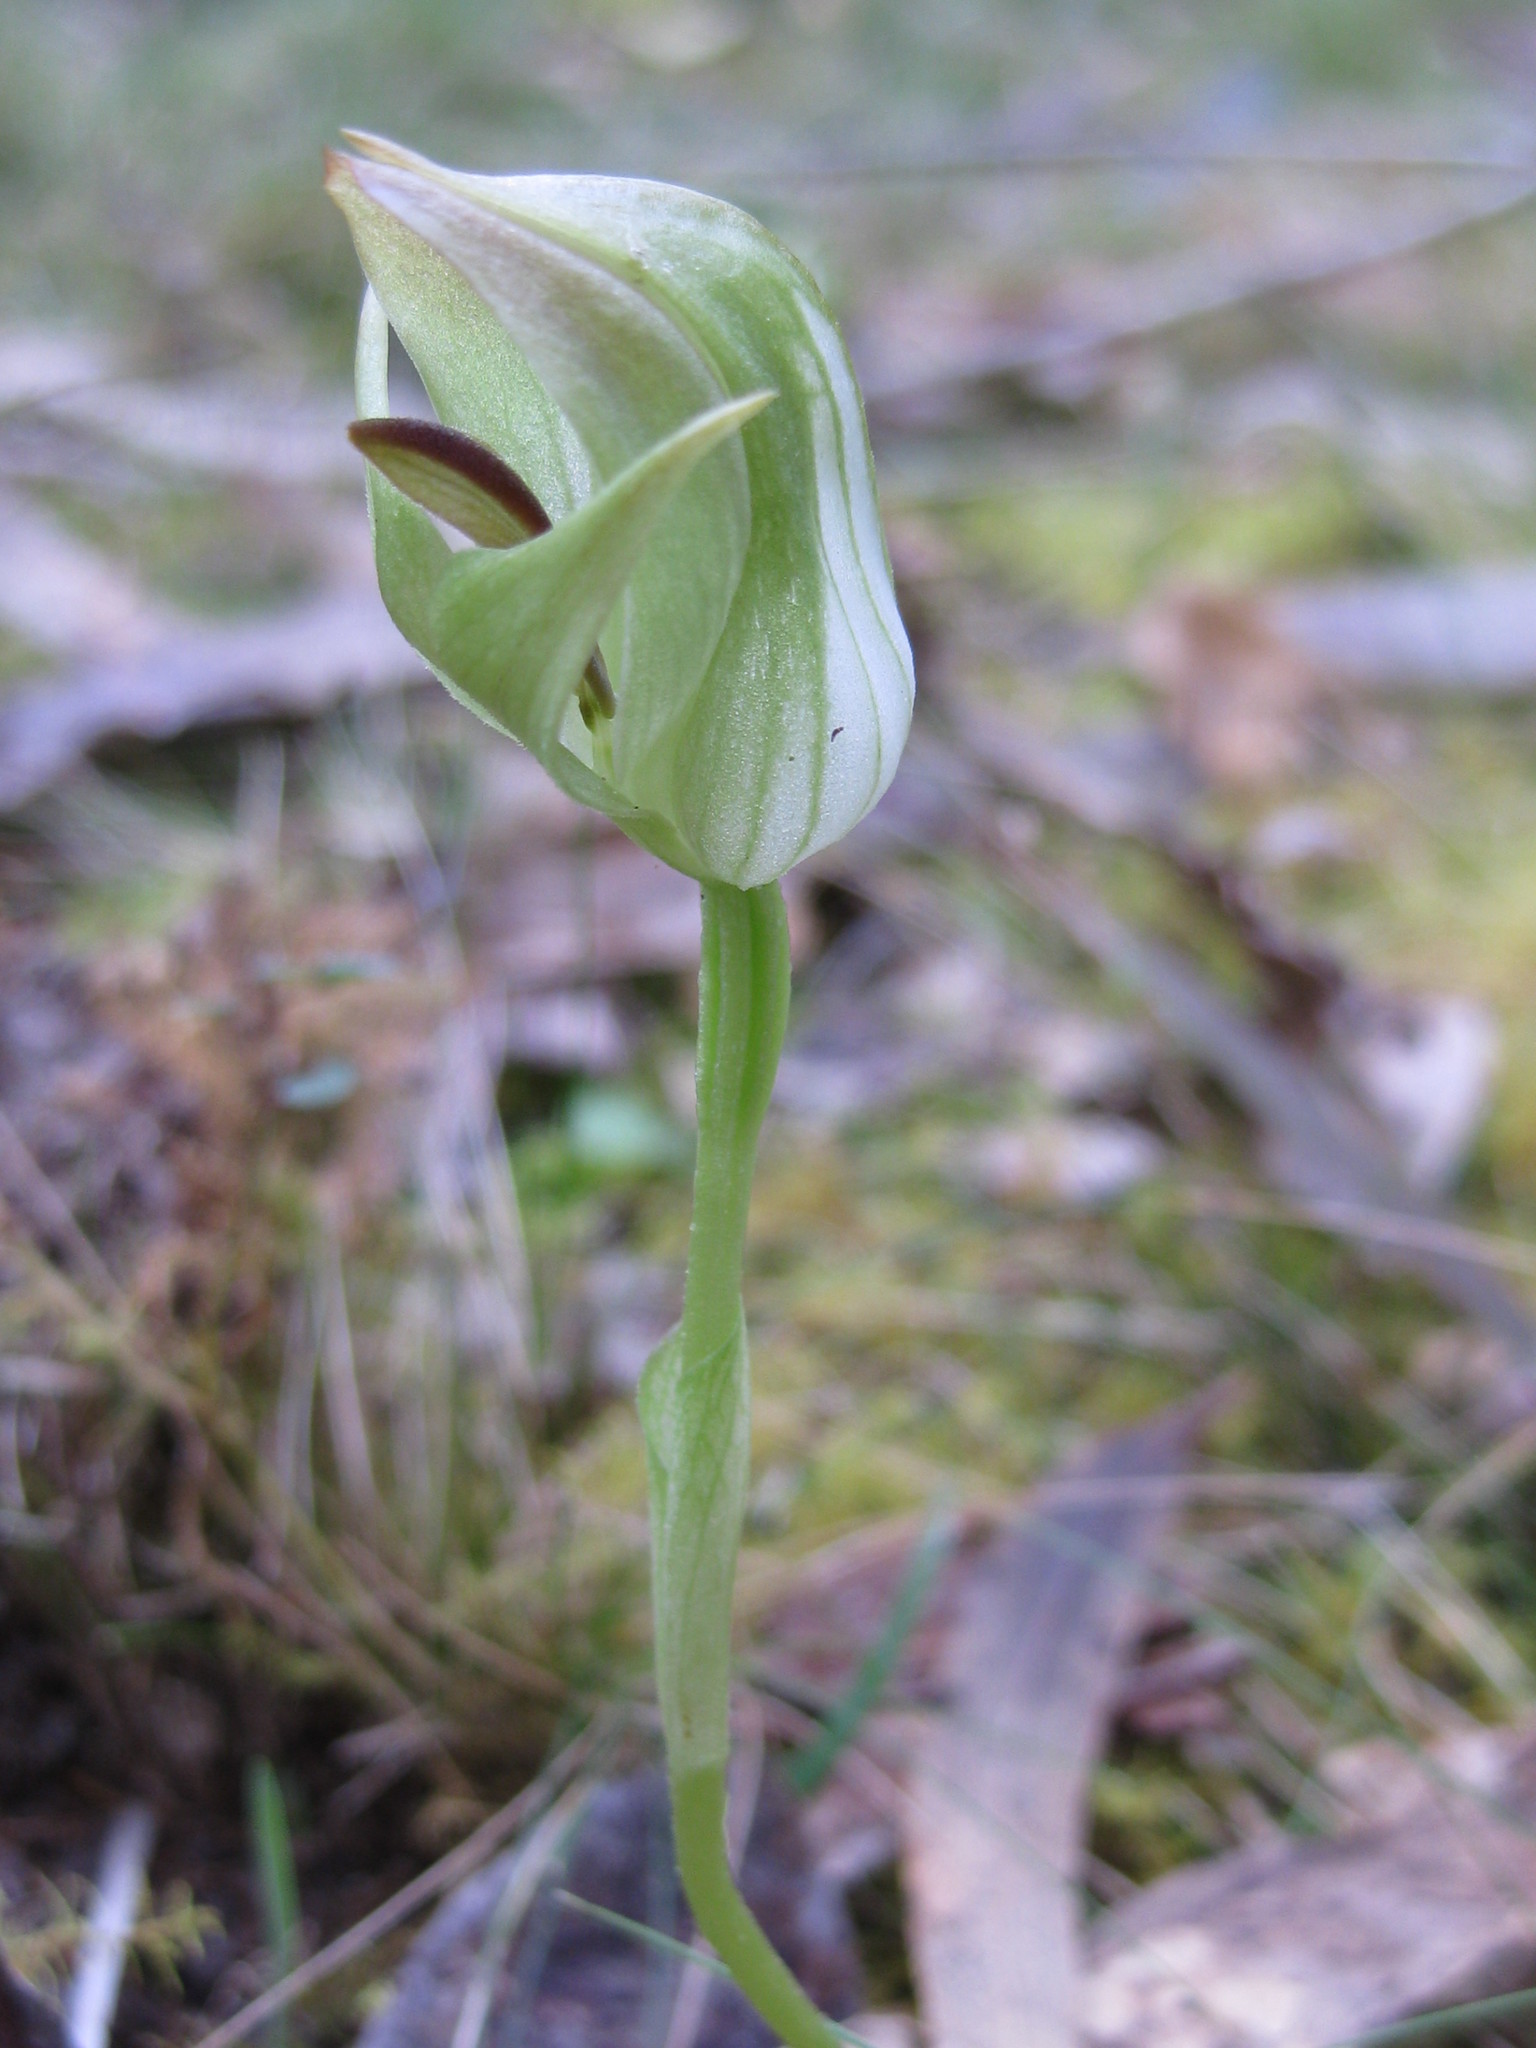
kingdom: Plantae
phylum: Tracheophyta
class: Liliopsida
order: Asparagales
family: Orchidaceae
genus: Pterostylis
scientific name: Pterostylis curta
